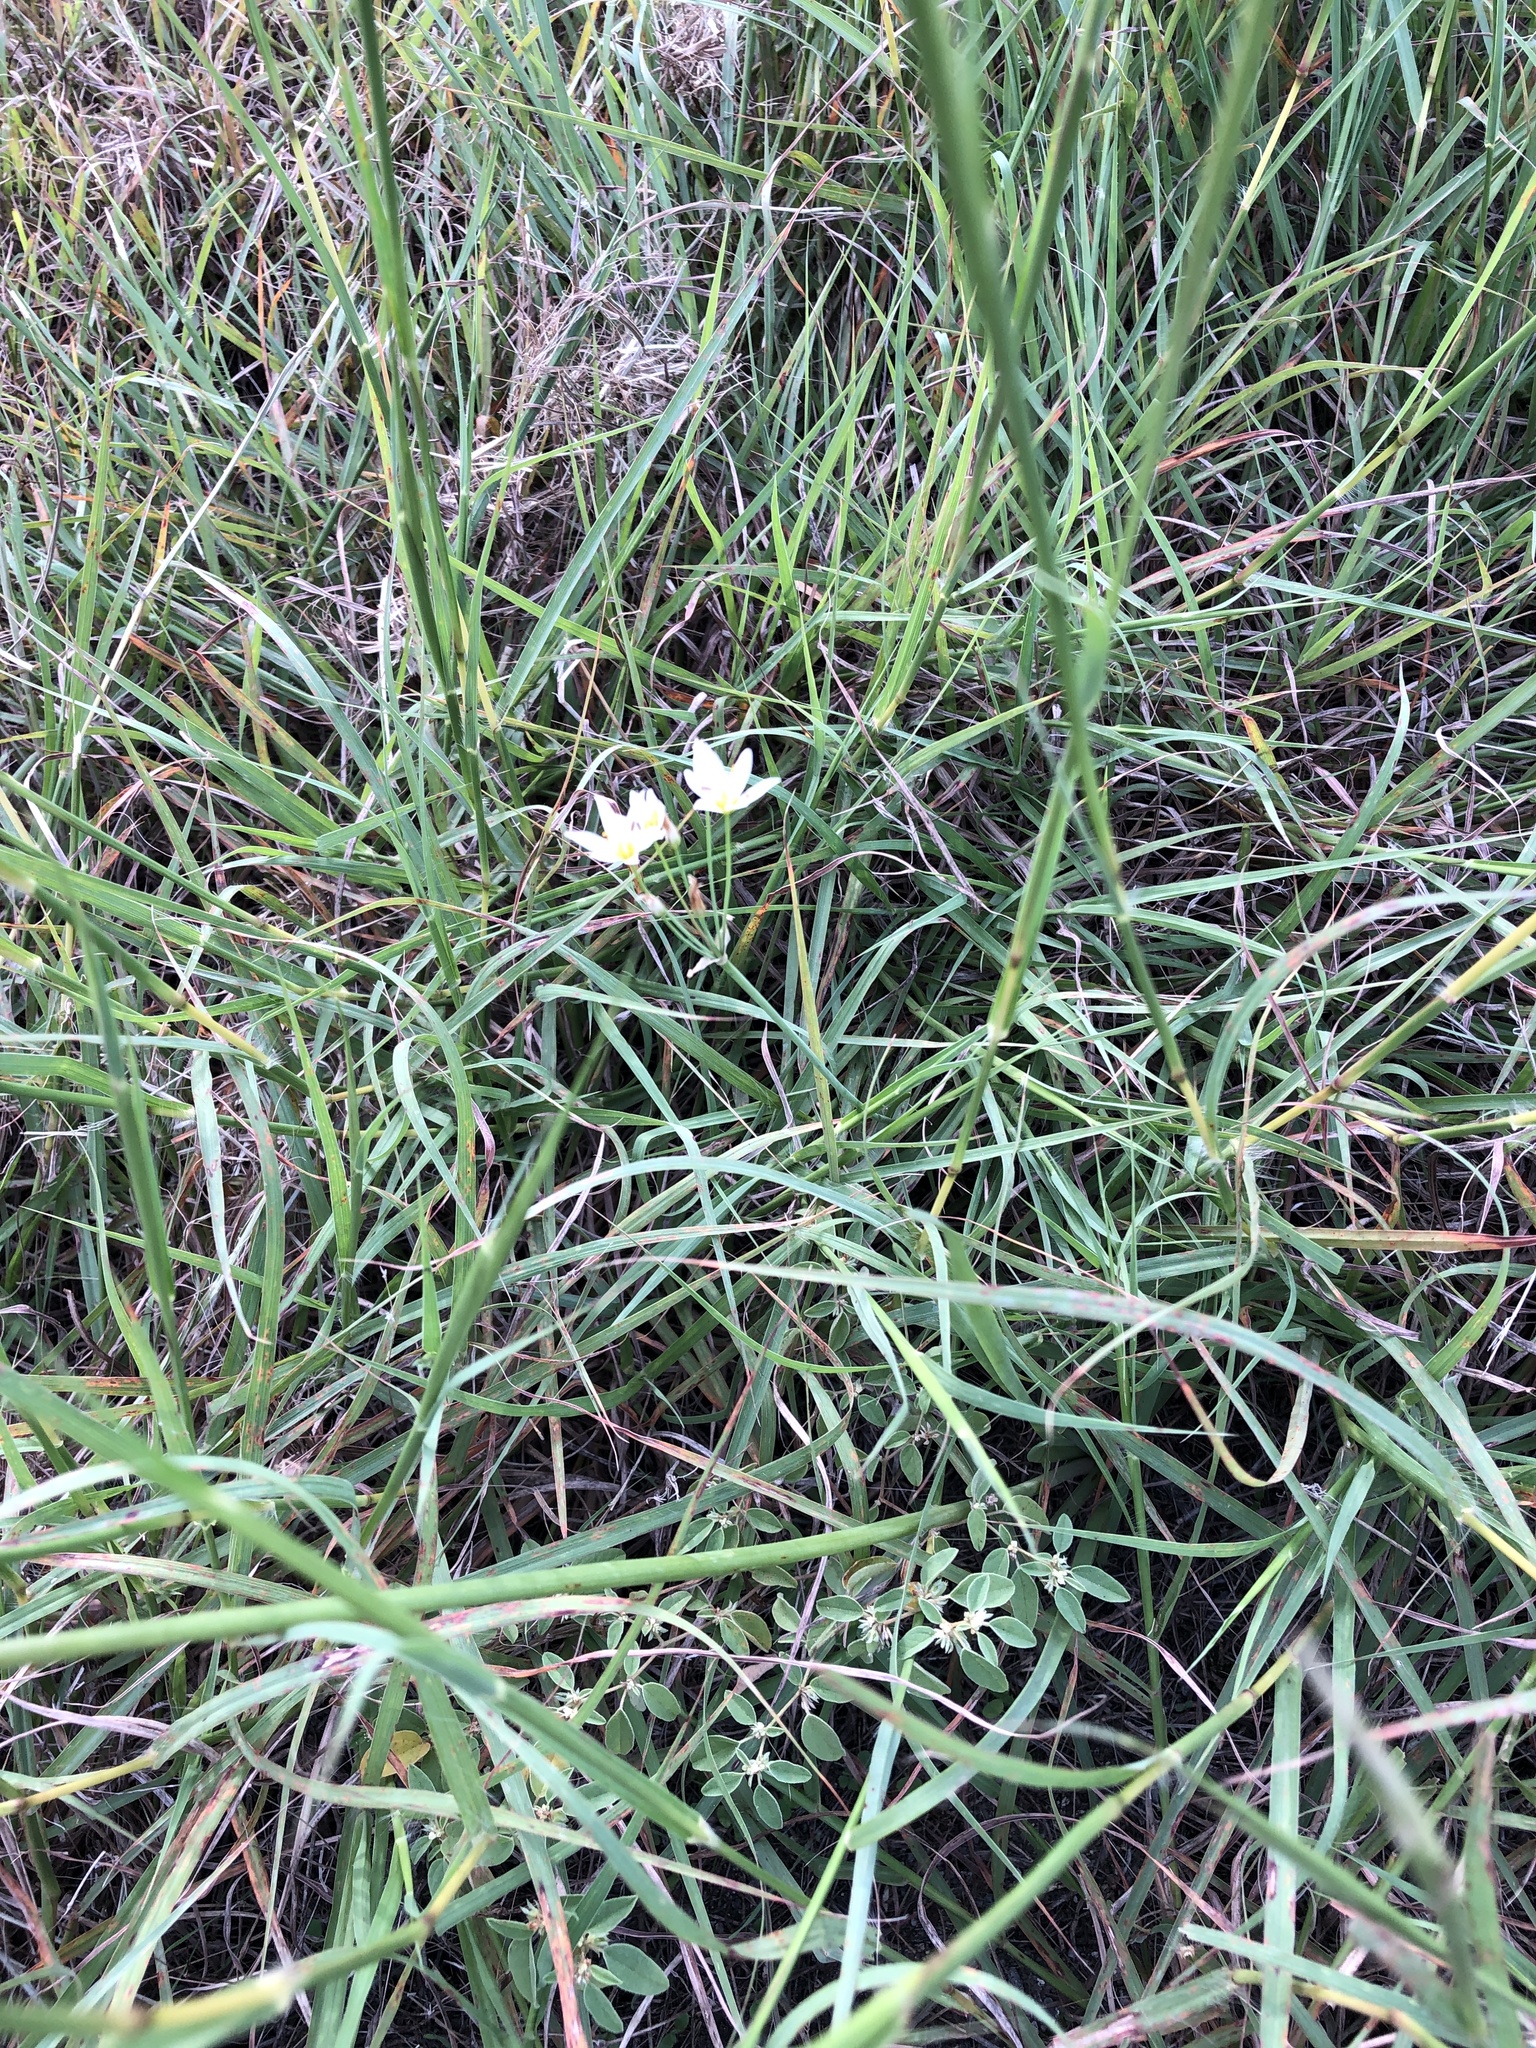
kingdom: Plantae
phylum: Tracheophyta
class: Liliopsida
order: Asparagales
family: Amaryllidaceae
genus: Nothoscordum
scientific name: Nothoscordum bivalve
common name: Crow-poison
